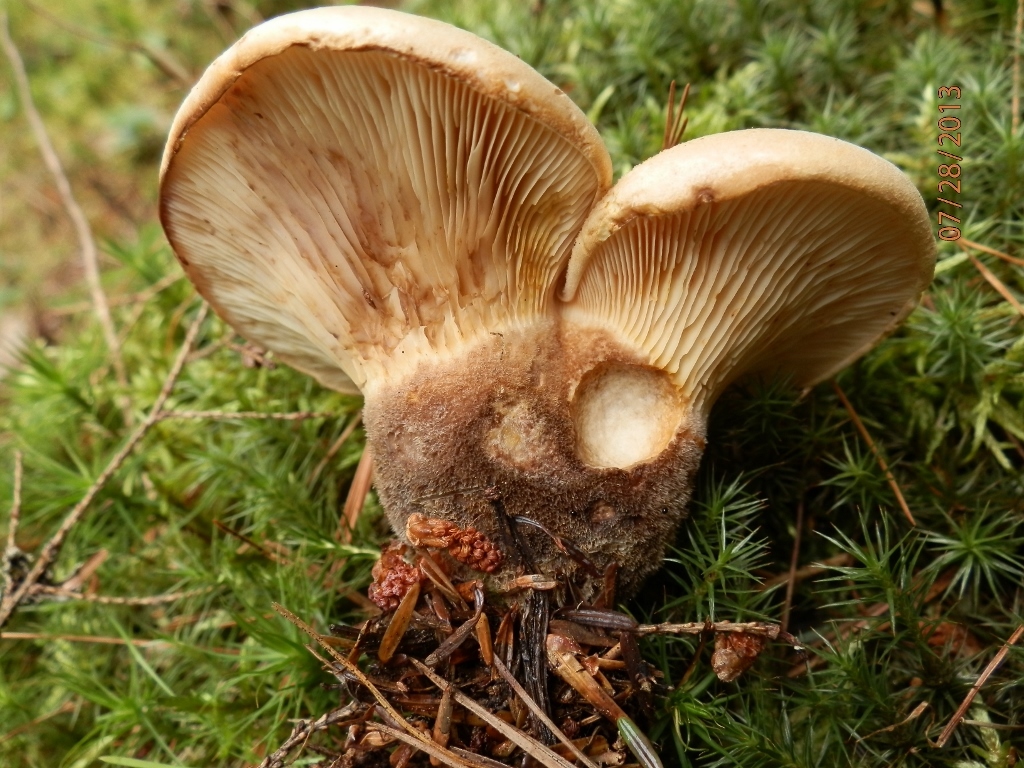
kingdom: Fungi
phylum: Basidiomycota
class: Agaricomycetes
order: Boletales
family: Tapinellaceae
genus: Tapinella
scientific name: Tapinella atrotomentosa
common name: Velvet rollrim
